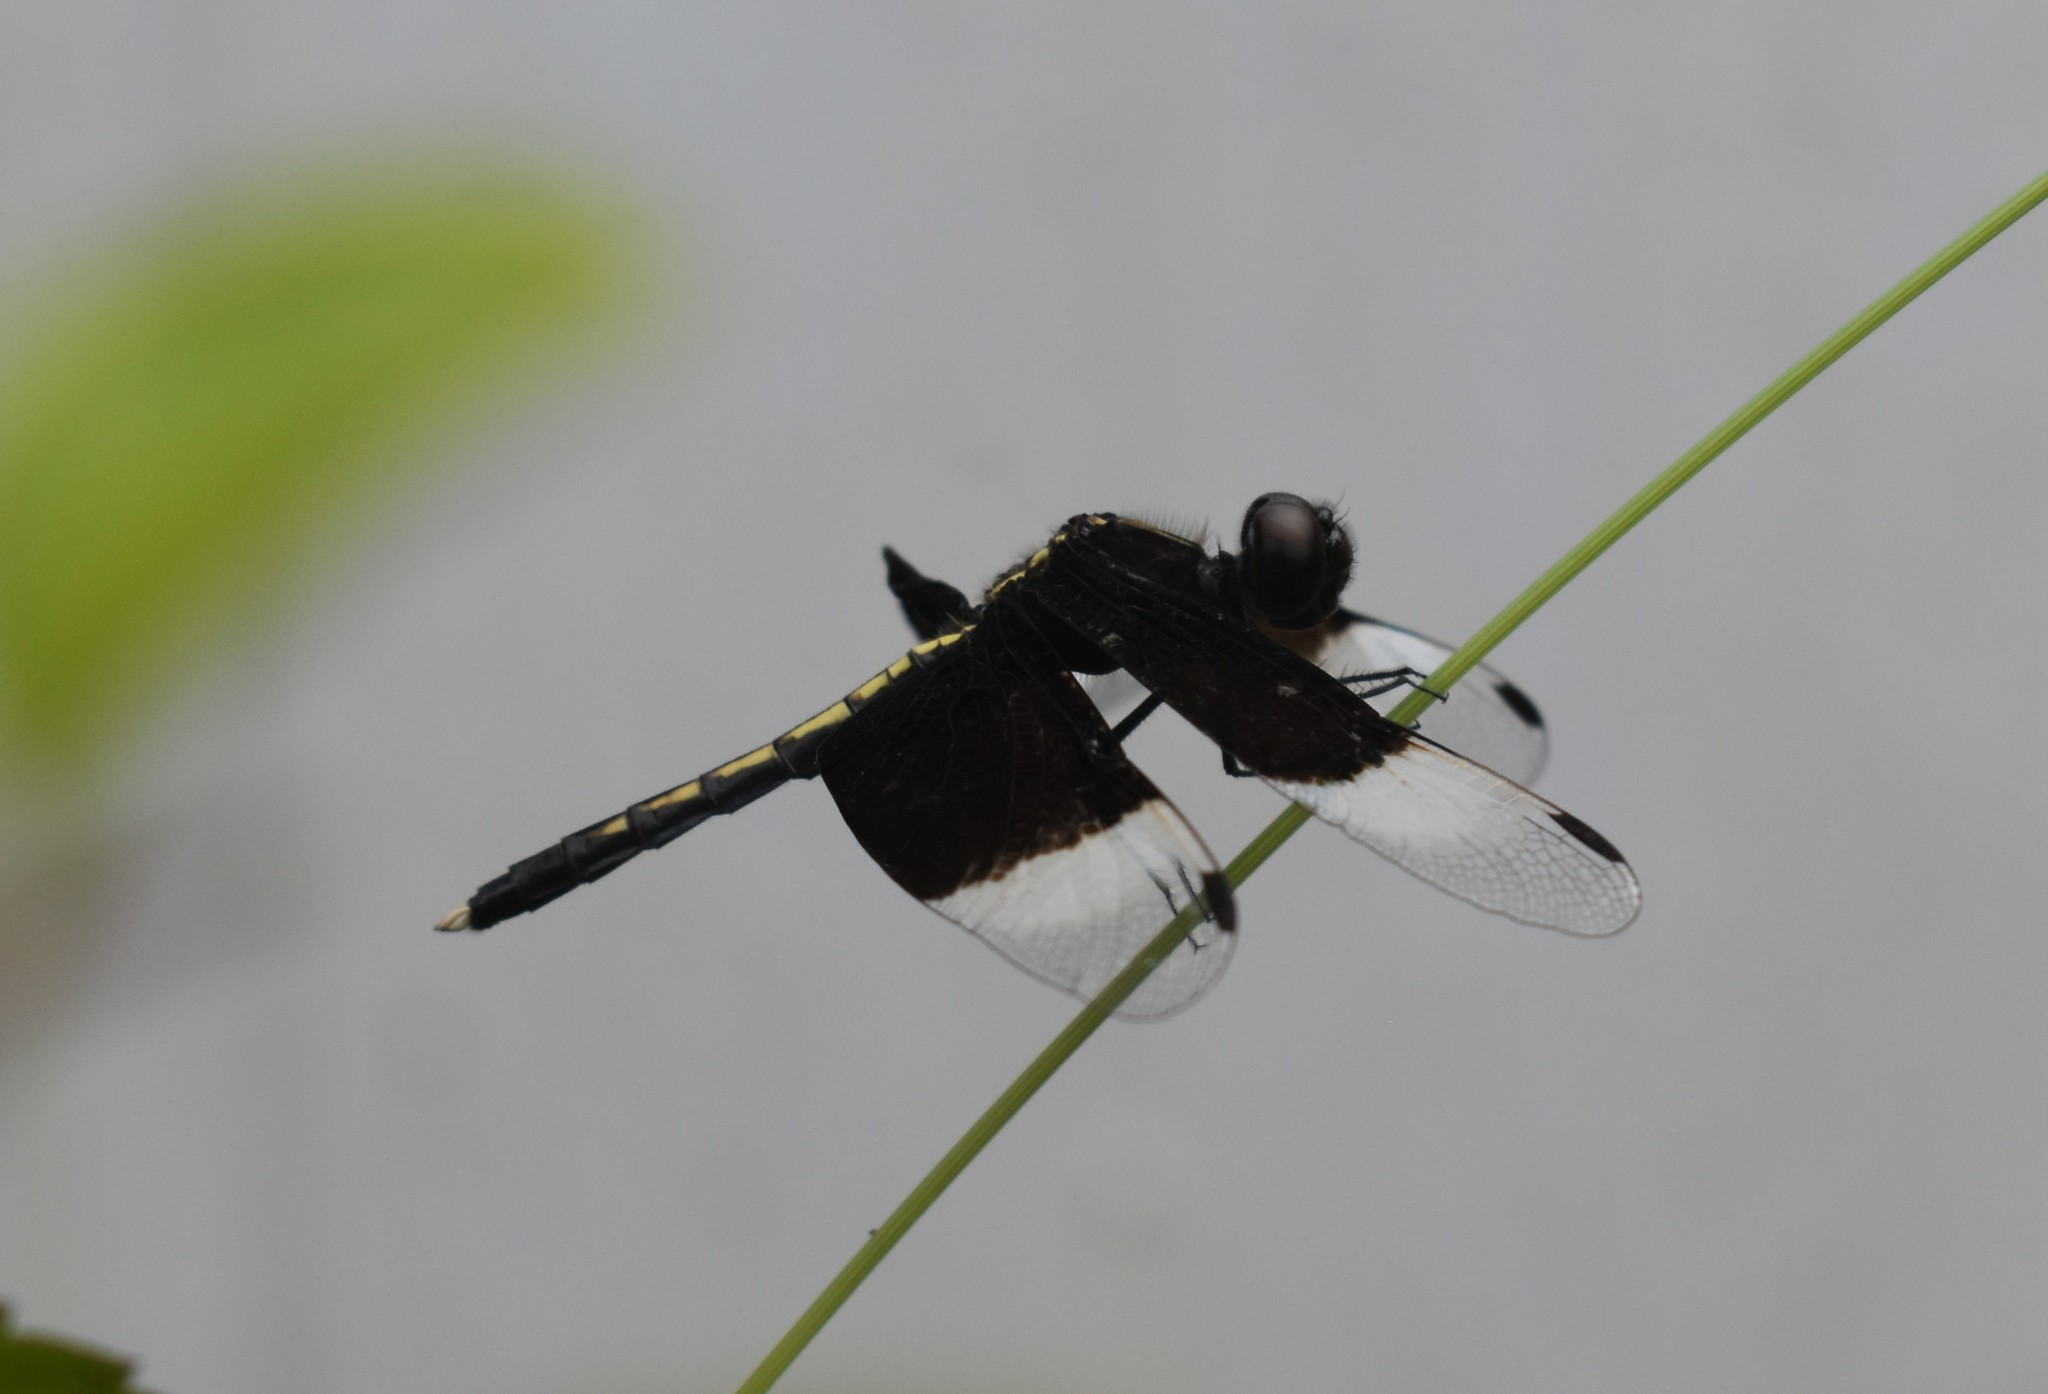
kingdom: Animalia
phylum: Arthropoda
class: Insecta
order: Odonata
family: Libellulidae
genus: Neurothemis
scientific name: Neurothemis tullia
